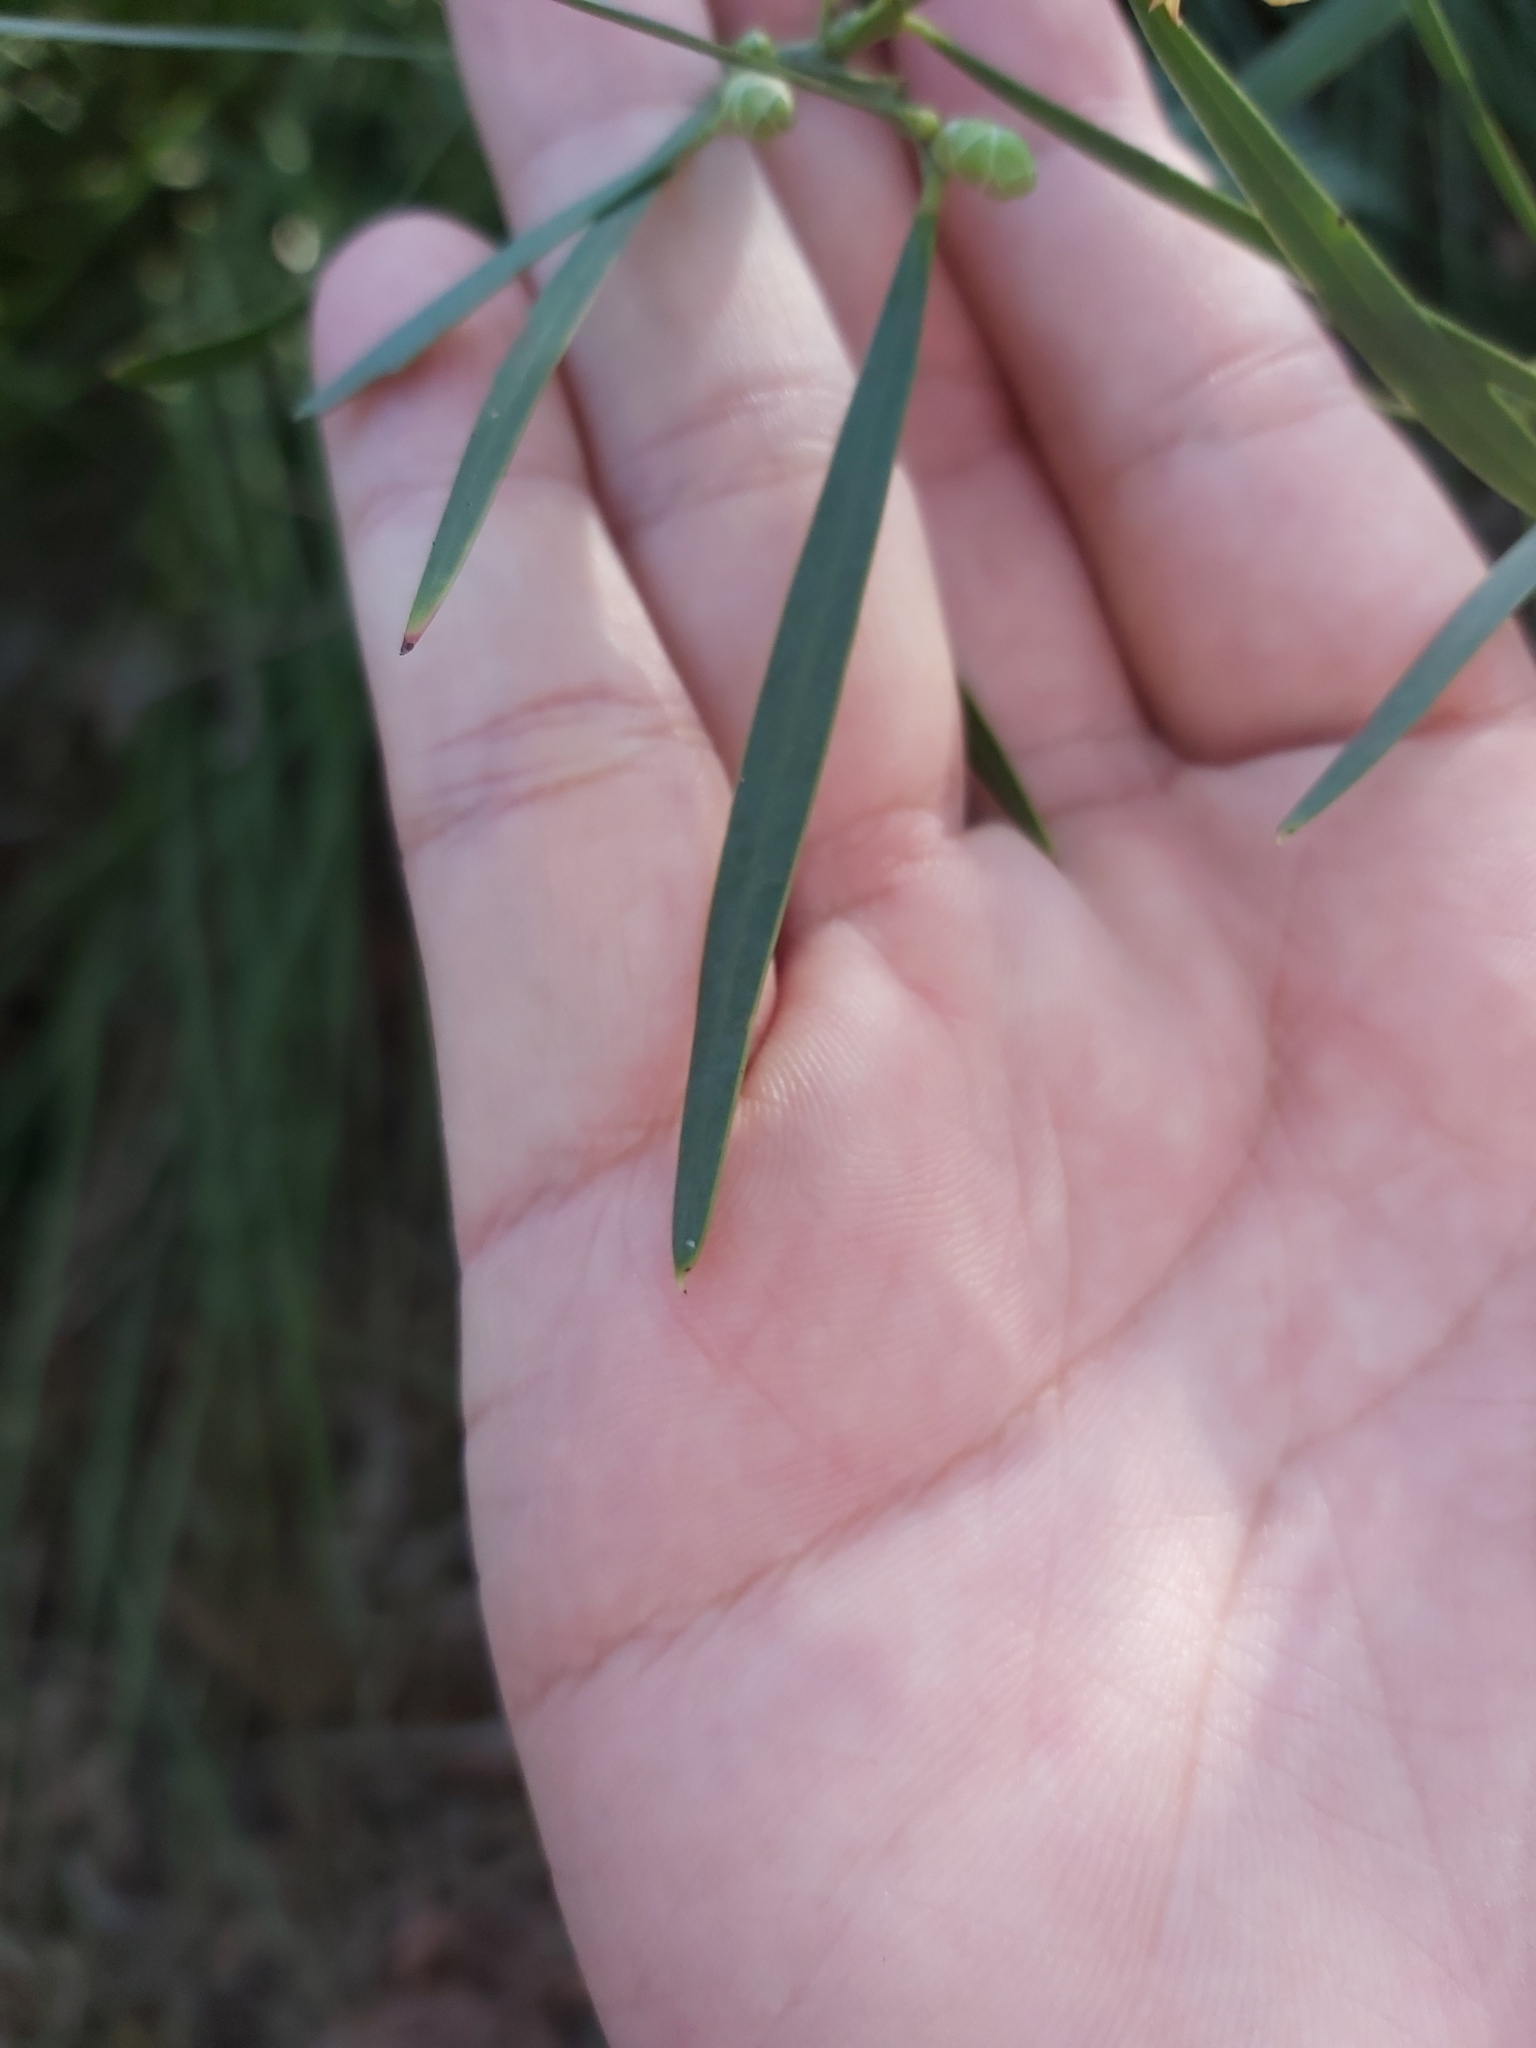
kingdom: Plantae
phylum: Tracheophyta
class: Magnoliopsida
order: Fabales
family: Fabaceae
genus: Acacia
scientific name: Acacia suaveolens
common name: Sweet acacia
